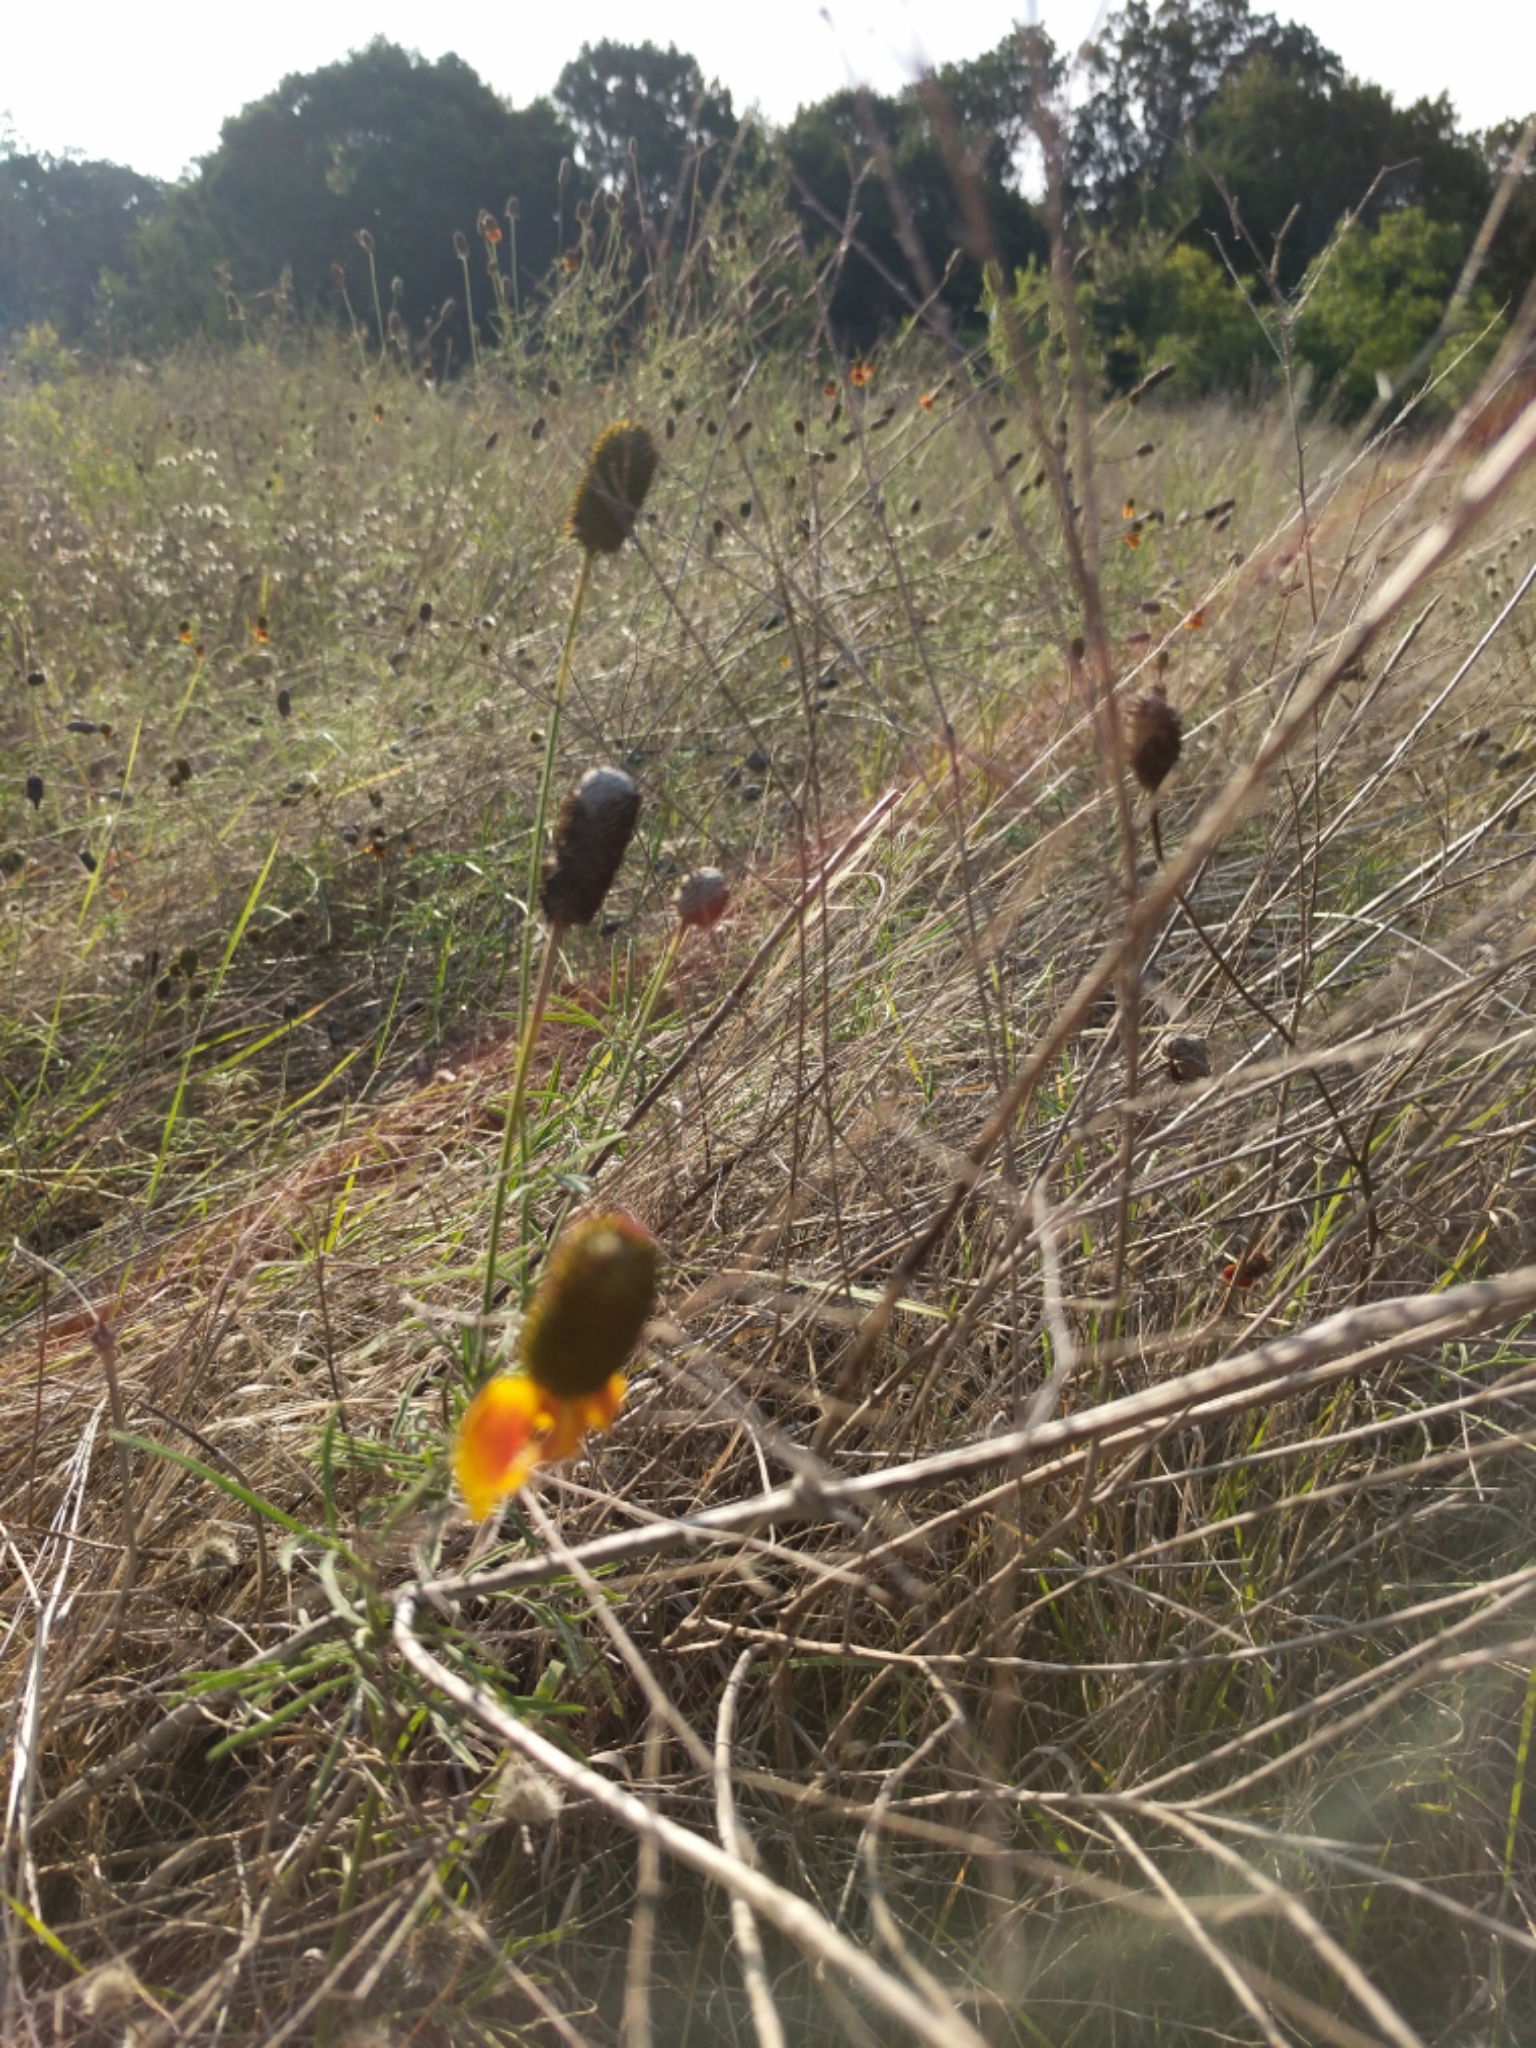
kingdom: Plantae
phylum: Tracheophyta
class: Magnoliopsida
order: Asterales
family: Asteraceae
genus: Ratibida
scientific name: Ratibida columnifera
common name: Prairie coneflower
